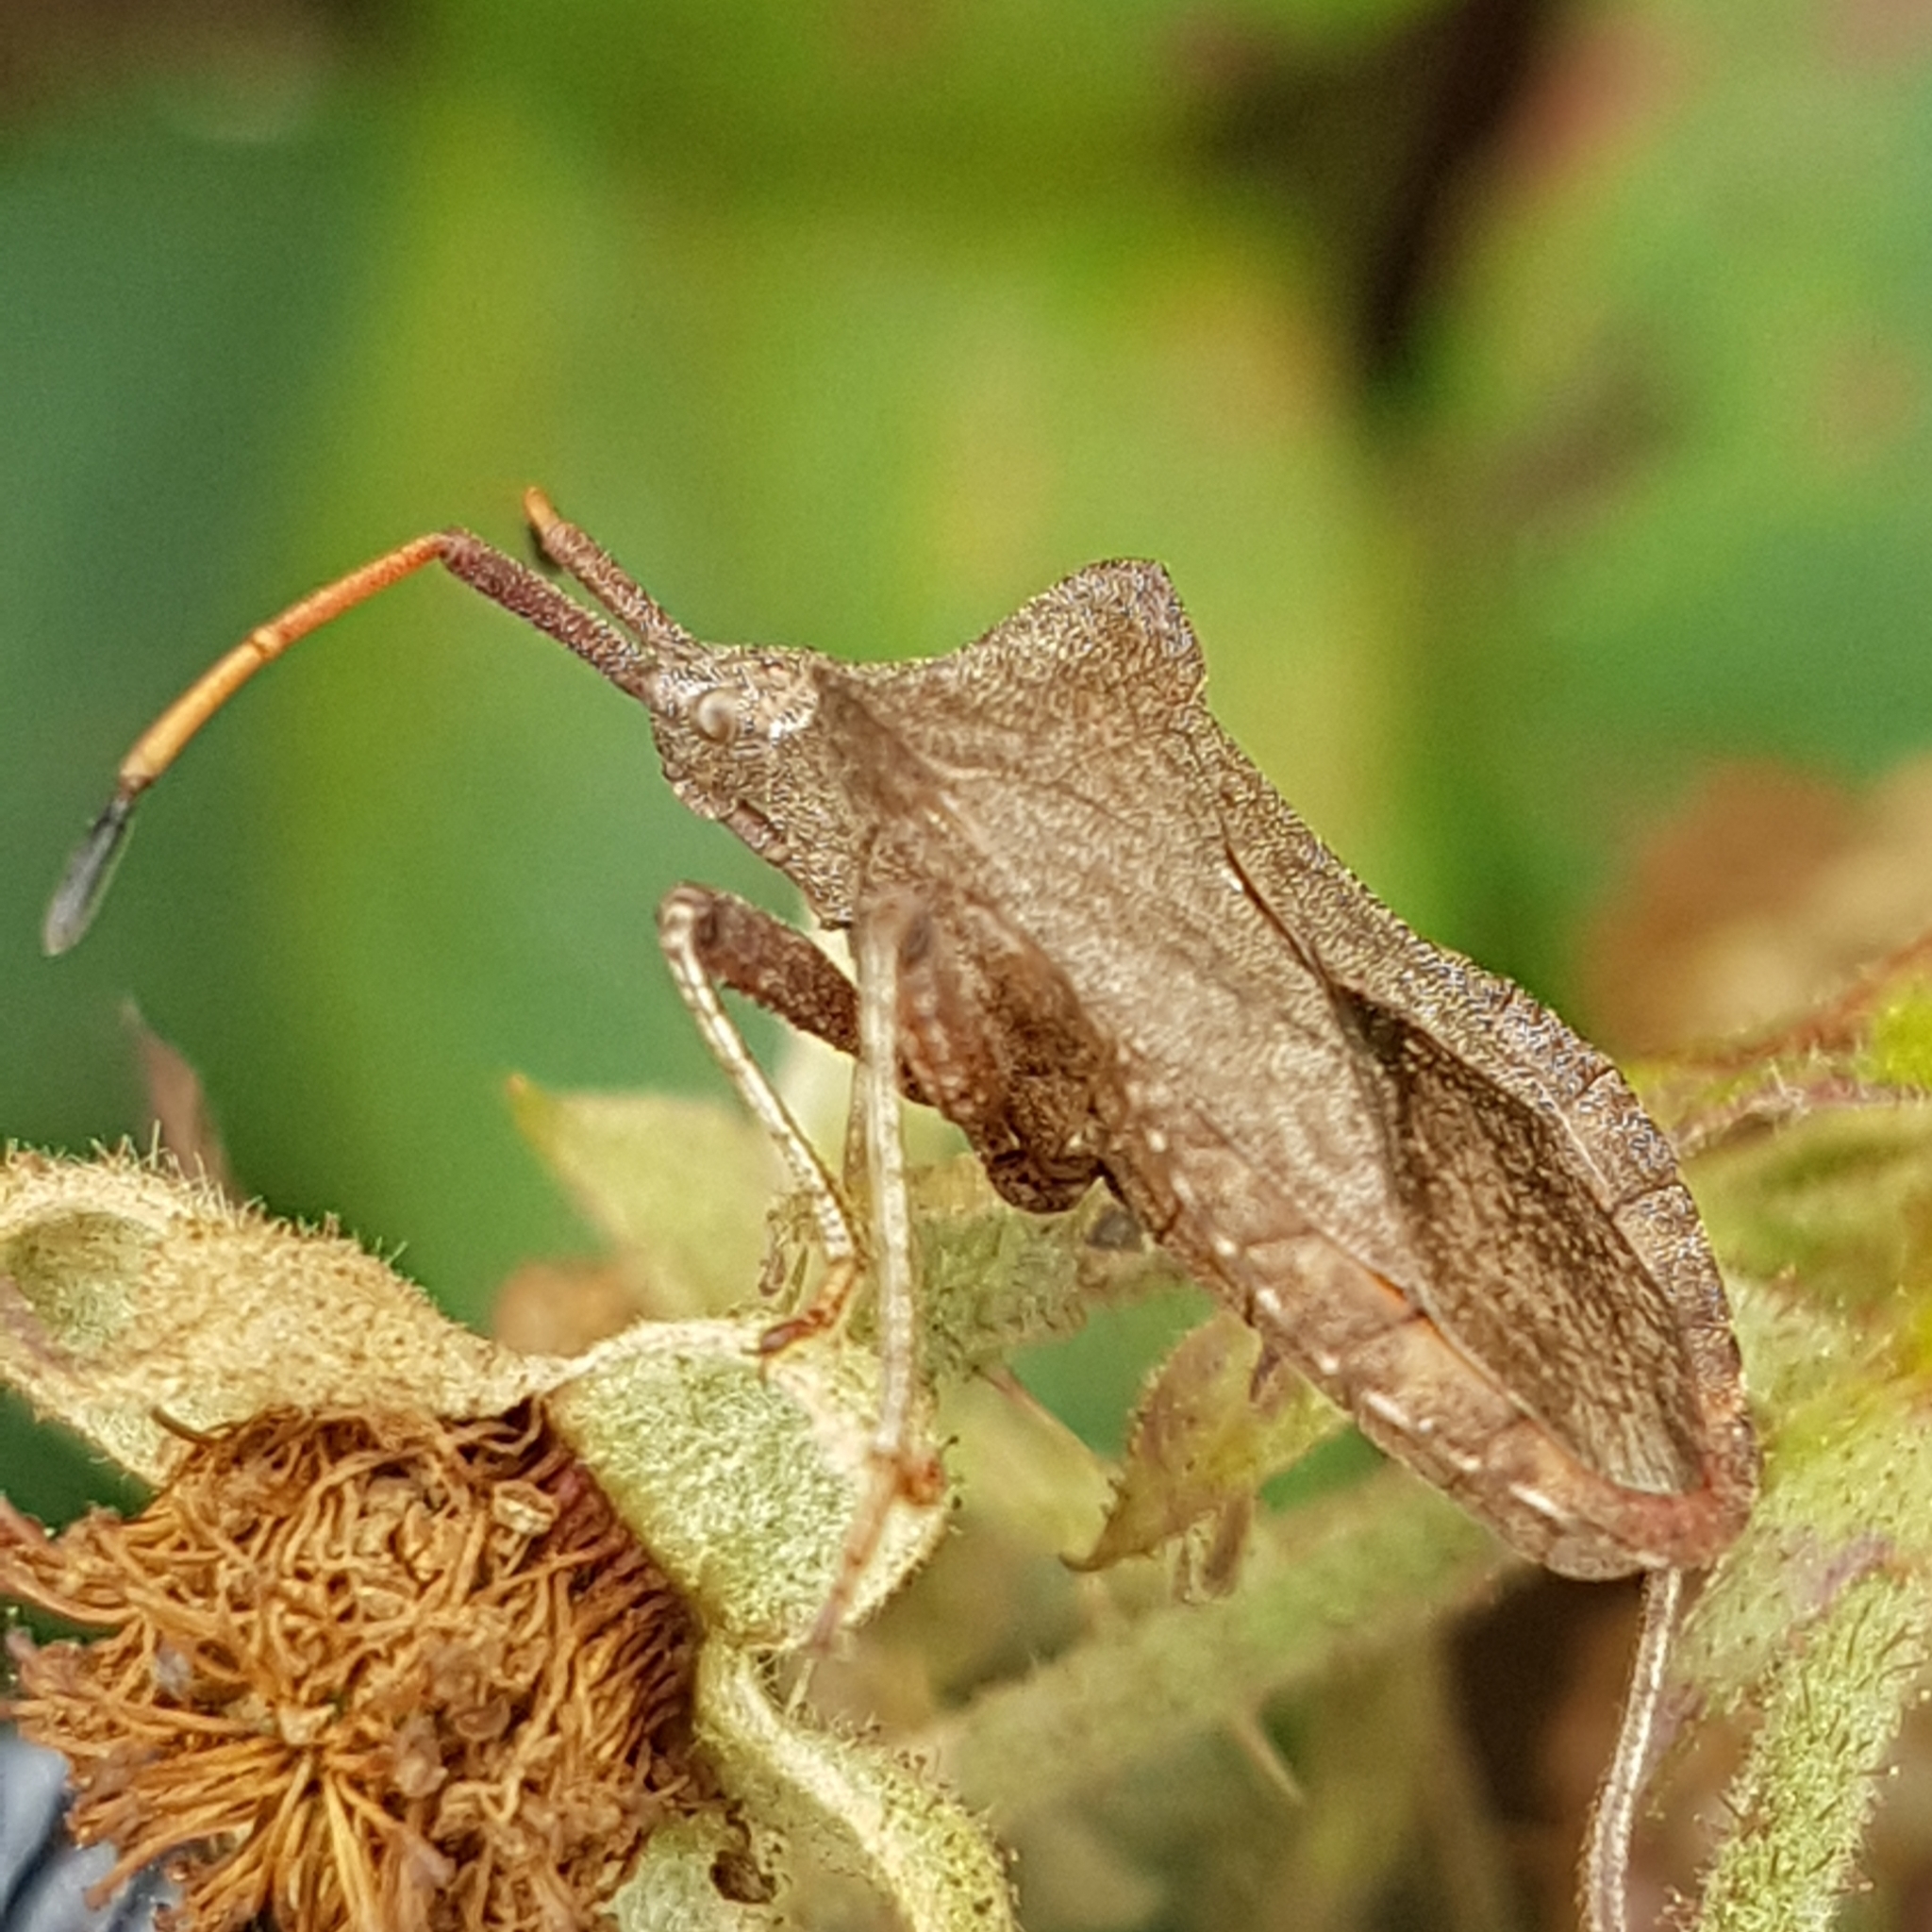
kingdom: Animalia
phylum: Arthropoda
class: Insecta
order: Hemiptera
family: Coreidae
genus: Coreus
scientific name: Coreus marginatus
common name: Dock bug
